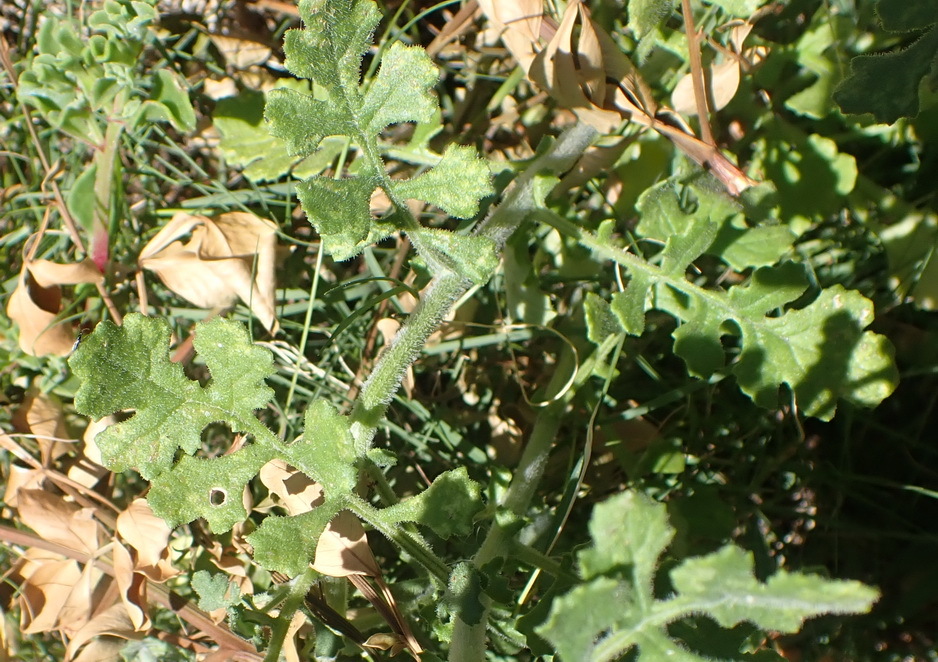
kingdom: Plantae
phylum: Tracheophyta
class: Magnoliopsida
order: Asterales
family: Asteraceae
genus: Senecio
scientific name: Senecio elegans
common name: Purple groundsel
